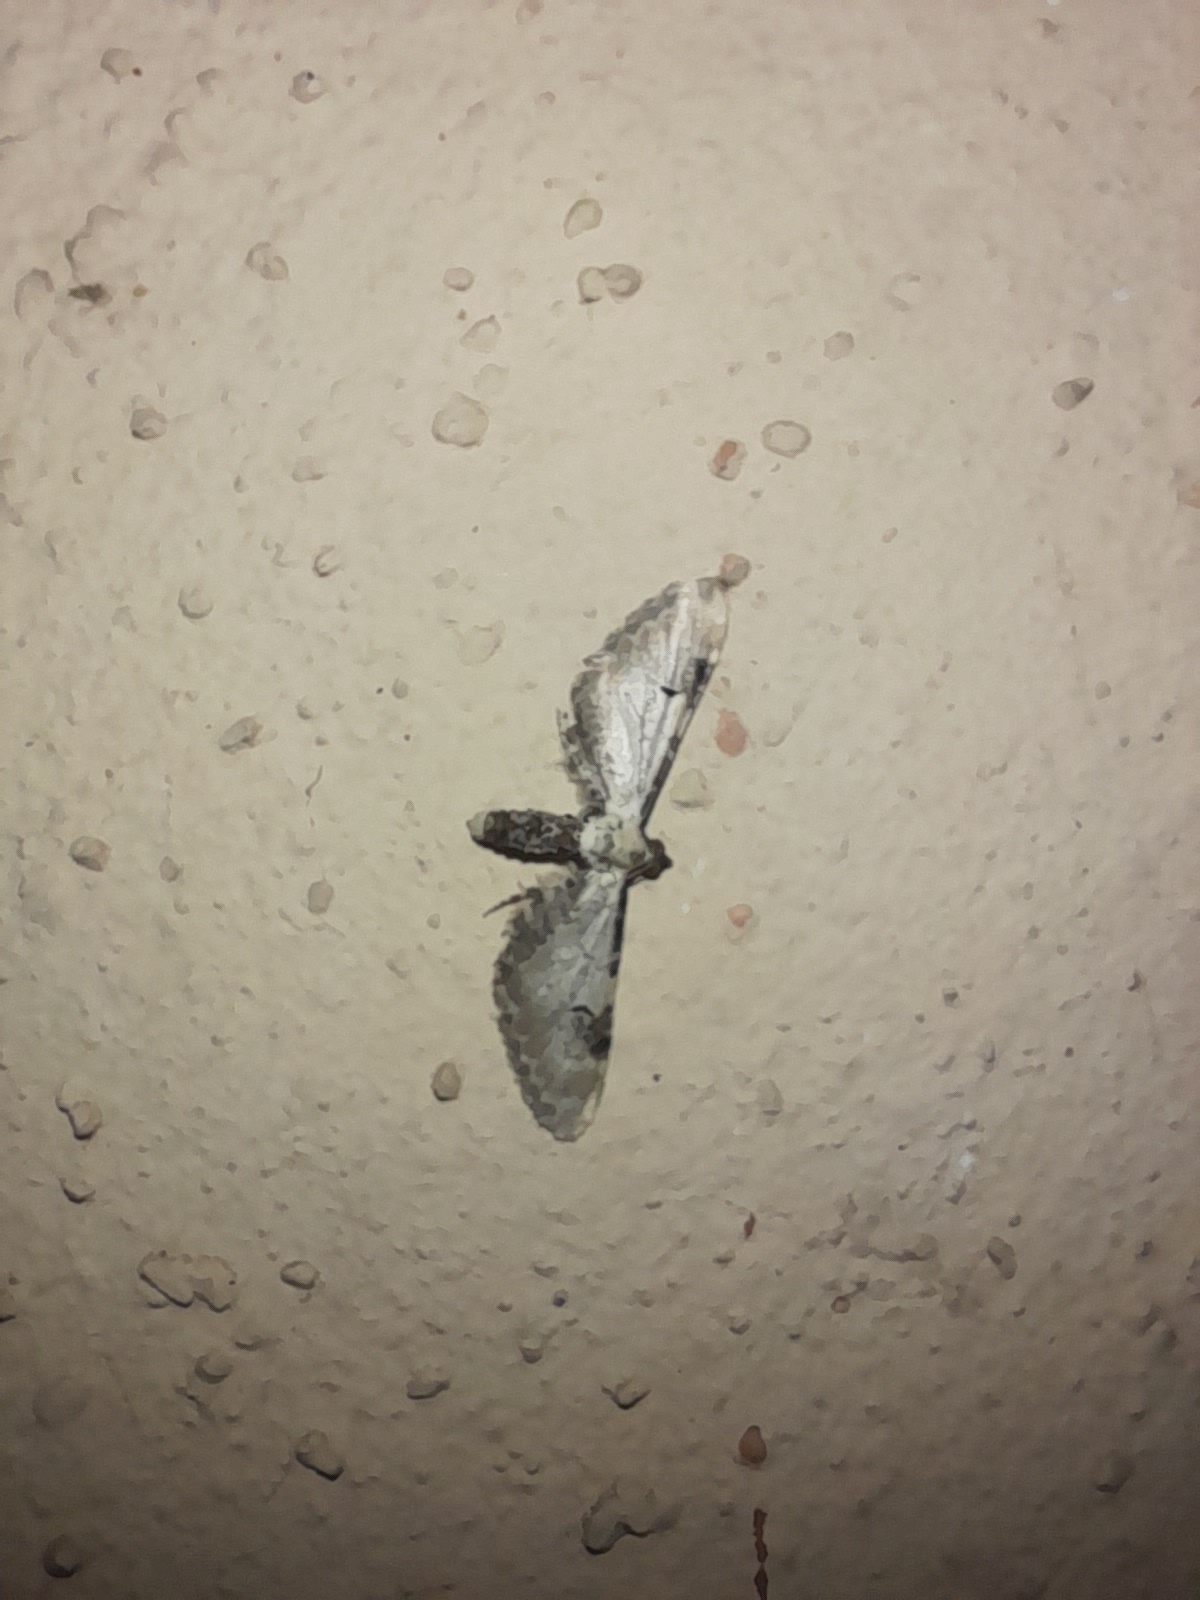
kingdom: Animalia
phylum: Arthropoda
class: Insecta
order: Lepidoptera
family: Geometridae
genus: Eupithecia
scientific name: Eupithecia centaureata
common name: Lime-speck pug
